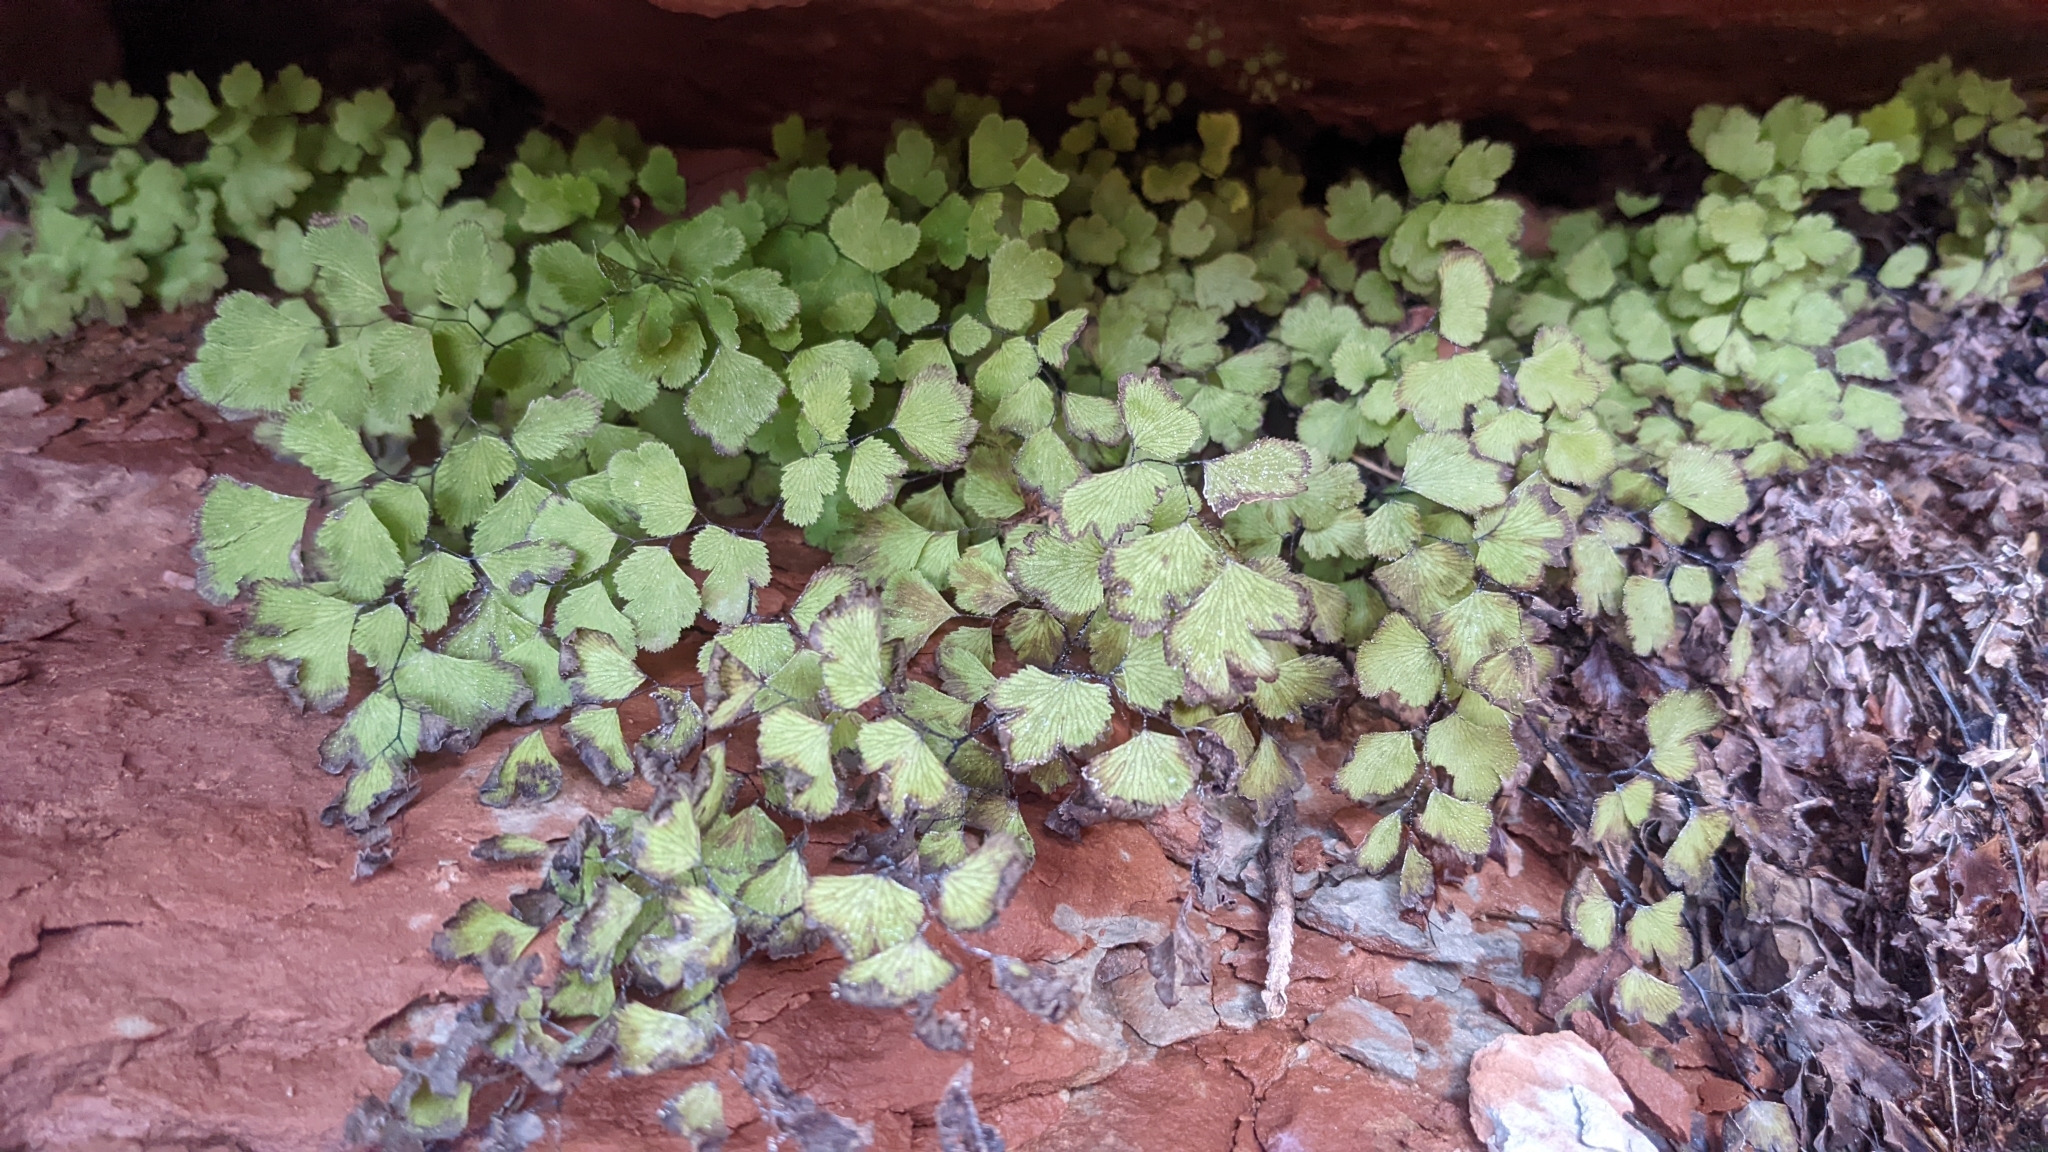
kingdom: Plantae
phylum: Tracheophyta
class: Polypodiopsida
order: Polypodiales
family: Pteridaceae
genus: Adiantum
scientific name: Adiantum capillus-veneris
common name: Maidenhair fern
